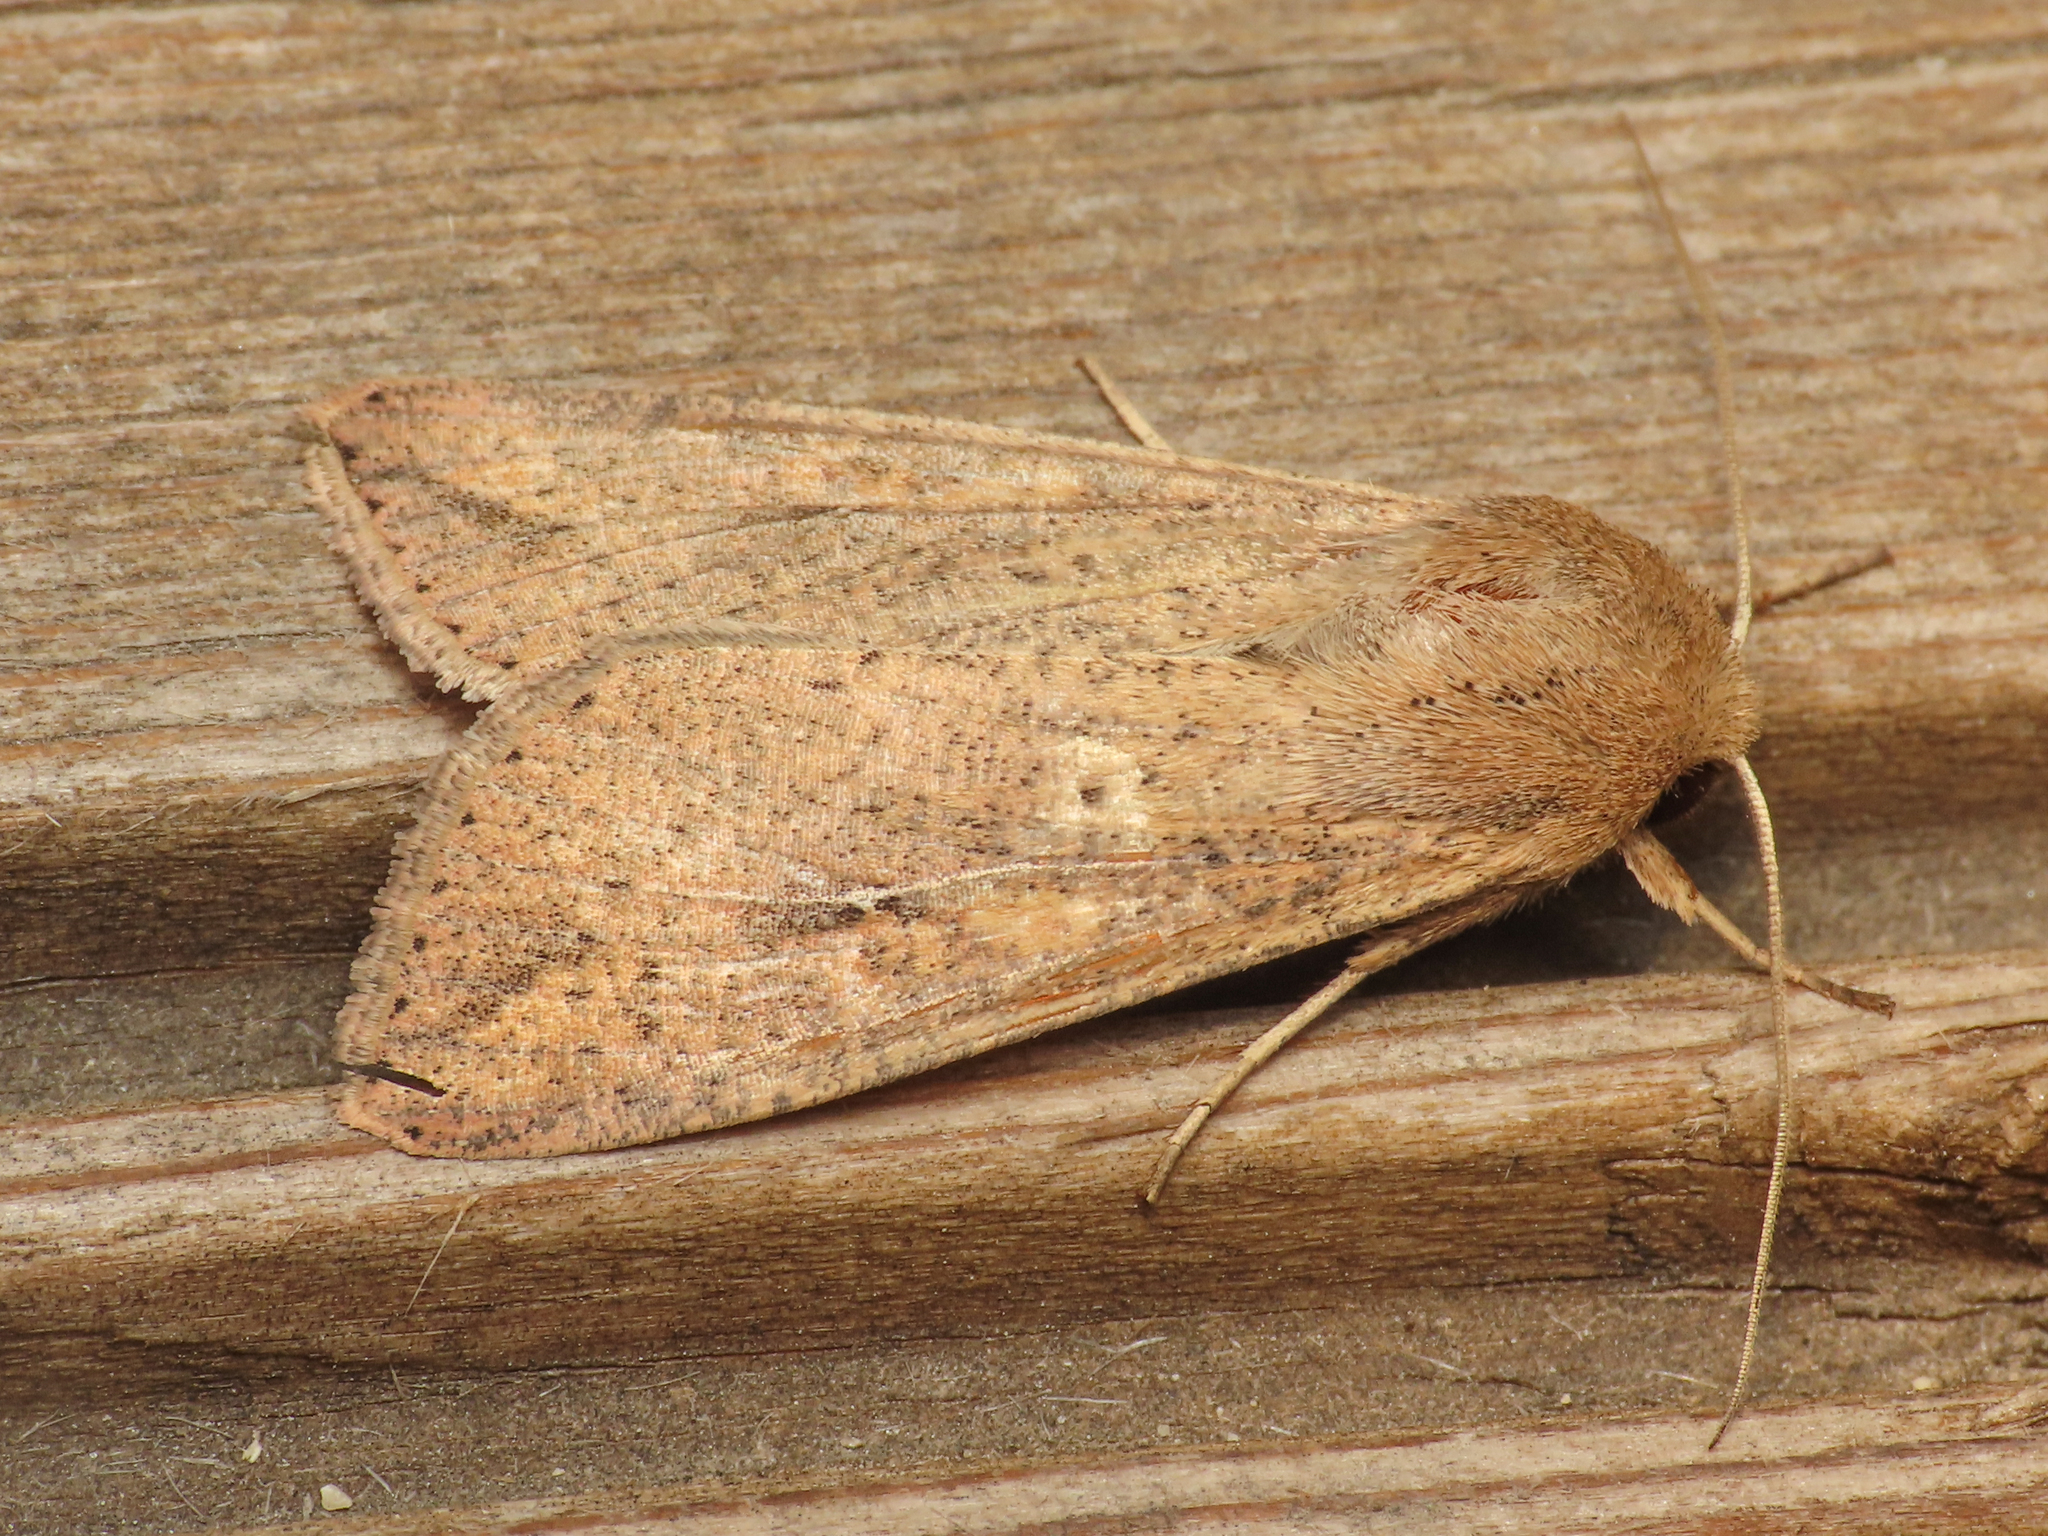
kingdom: Animalia
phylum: Arthropoda
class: Insecta
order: Lepidoptera
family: Noctuidae
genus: Mythimna
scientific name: Mythimna unipuncta
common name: White-speck
